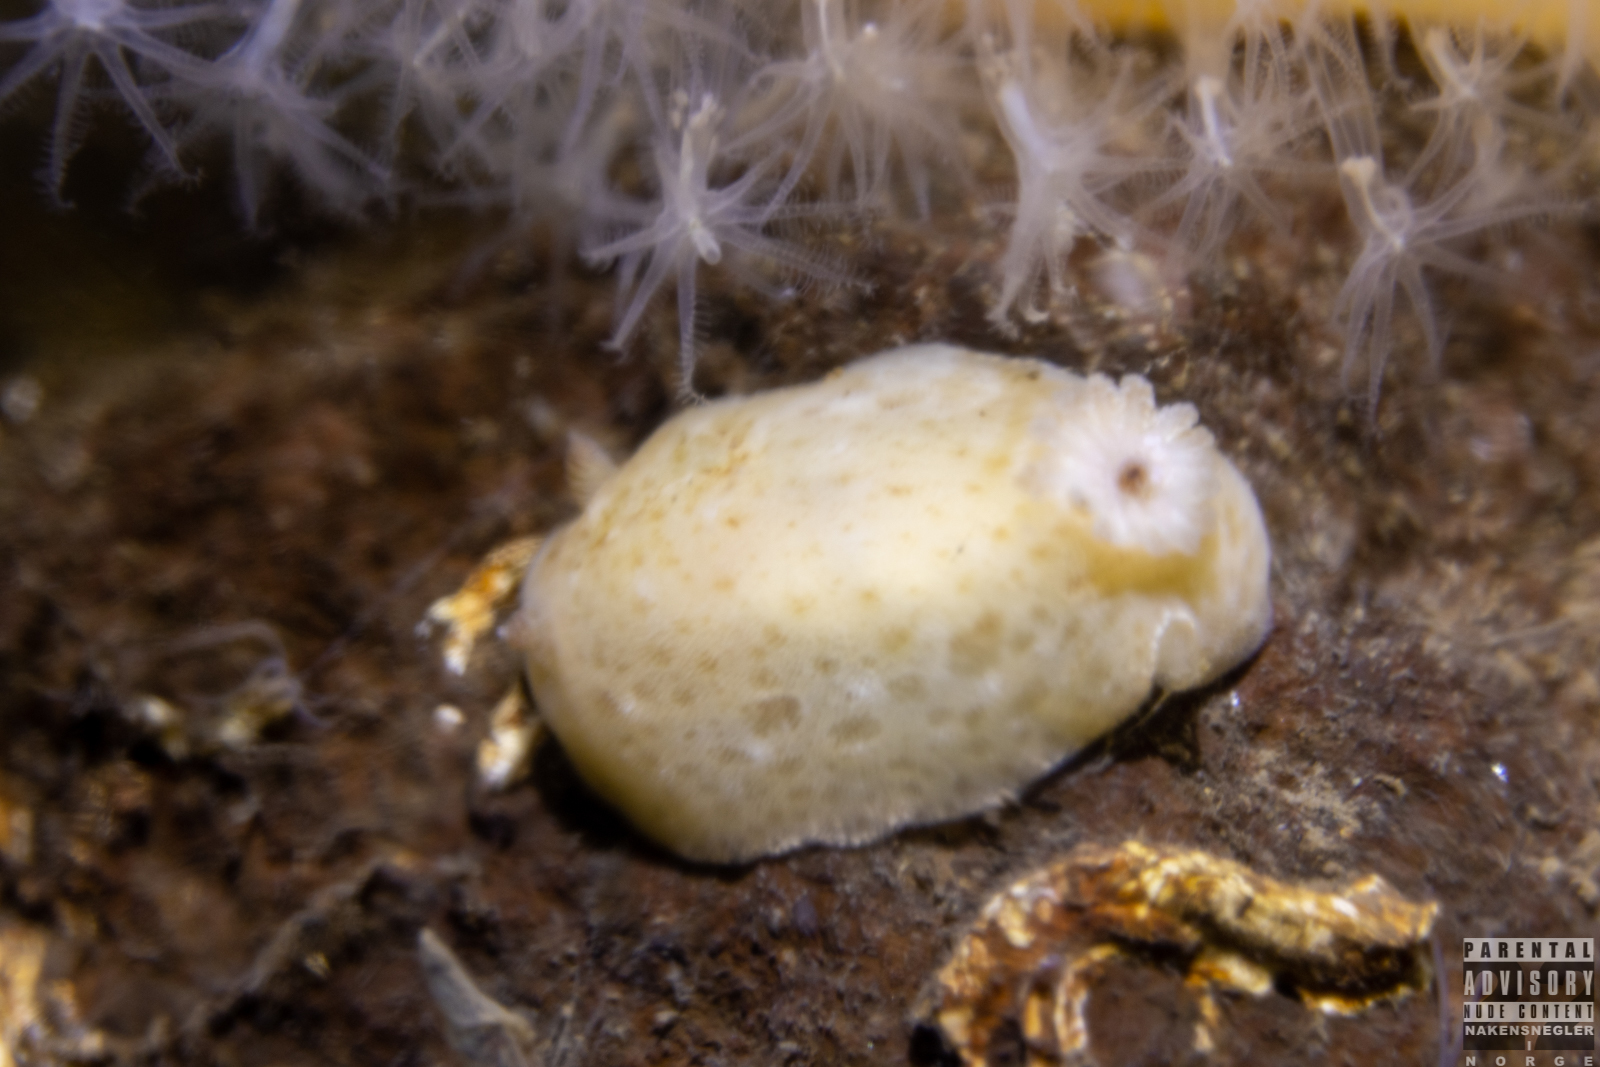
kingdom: Animalia
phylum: Mollusca
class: Gastropoda
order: Nudibranchia
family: Discodorididae
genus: Jorunna
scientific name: Jorunna tomentosa
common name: Grey sea slug
